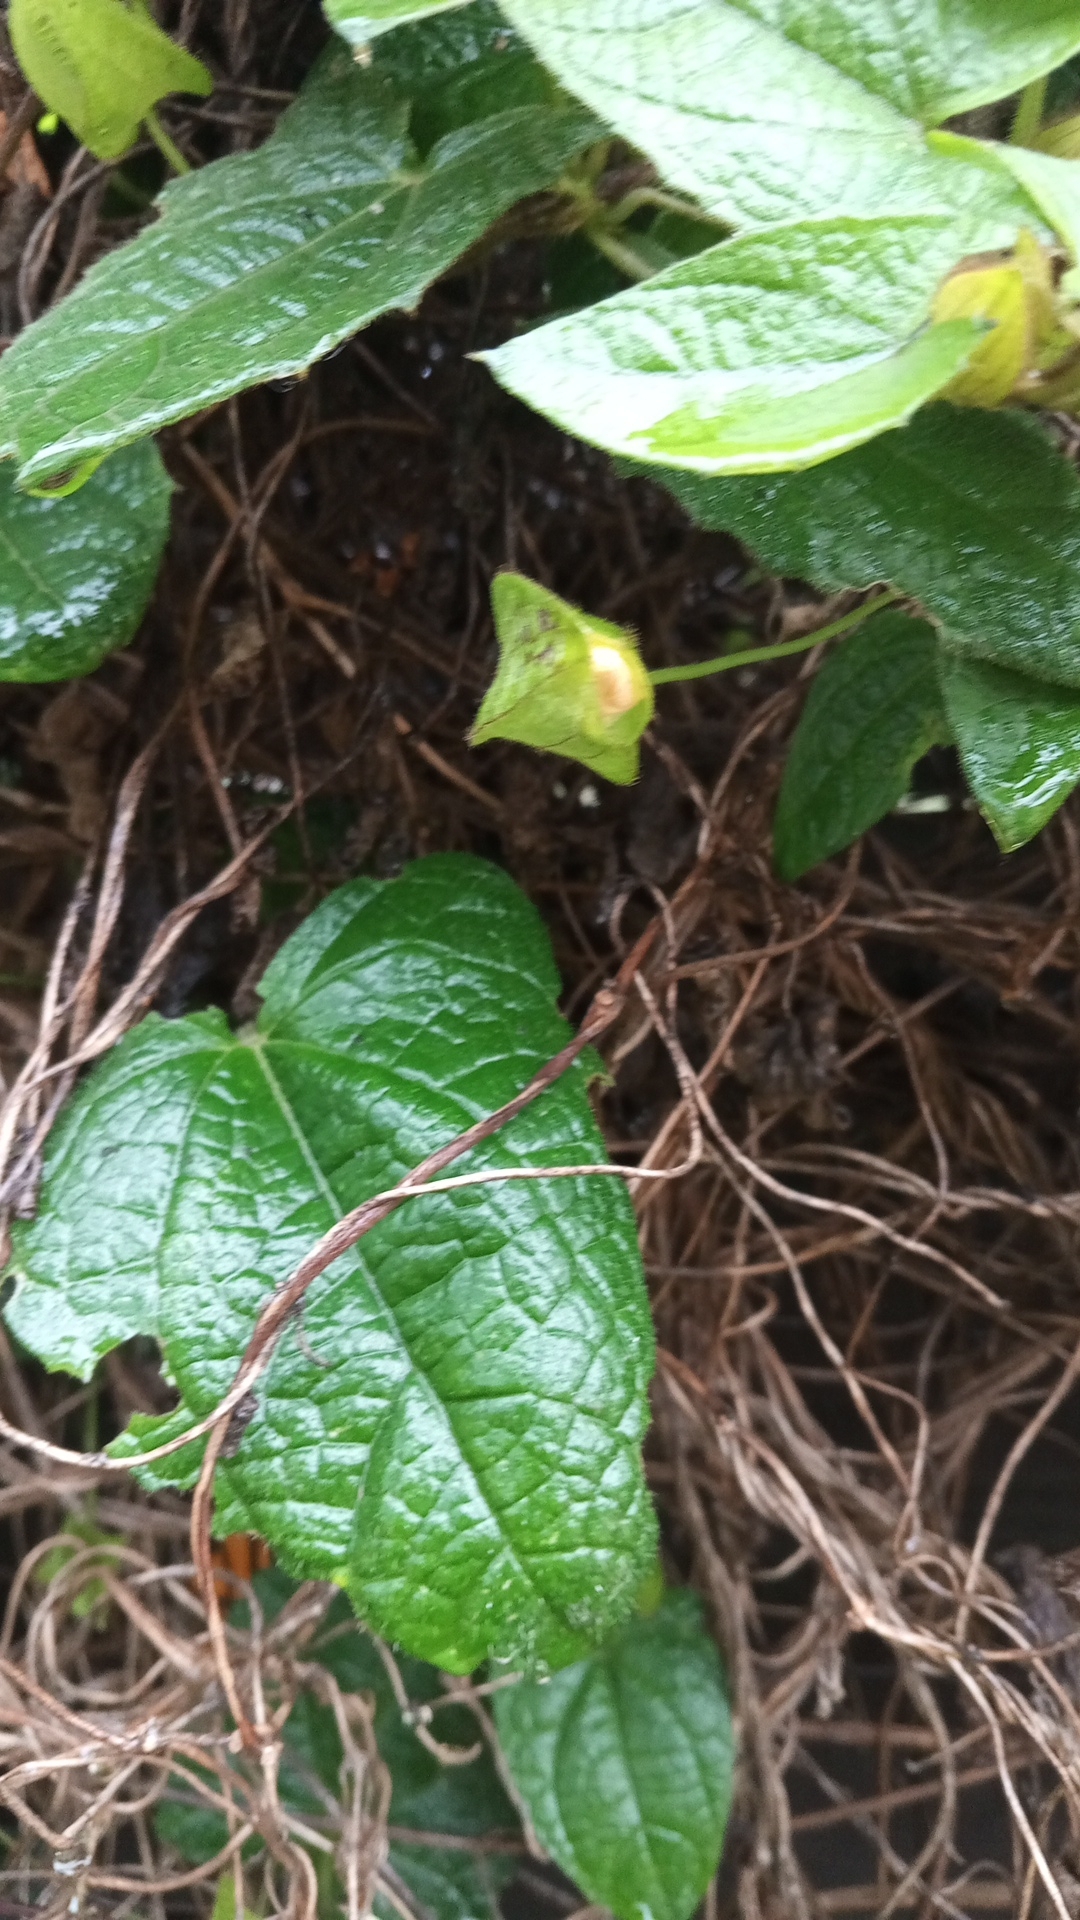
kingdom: Plantae
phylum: Tracheophyta
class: Magnoliopsida
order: Lamiales
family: Acanthaceae
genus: Thunbergia
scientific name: Thunbergia alata
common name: Blackeyed susan vine
